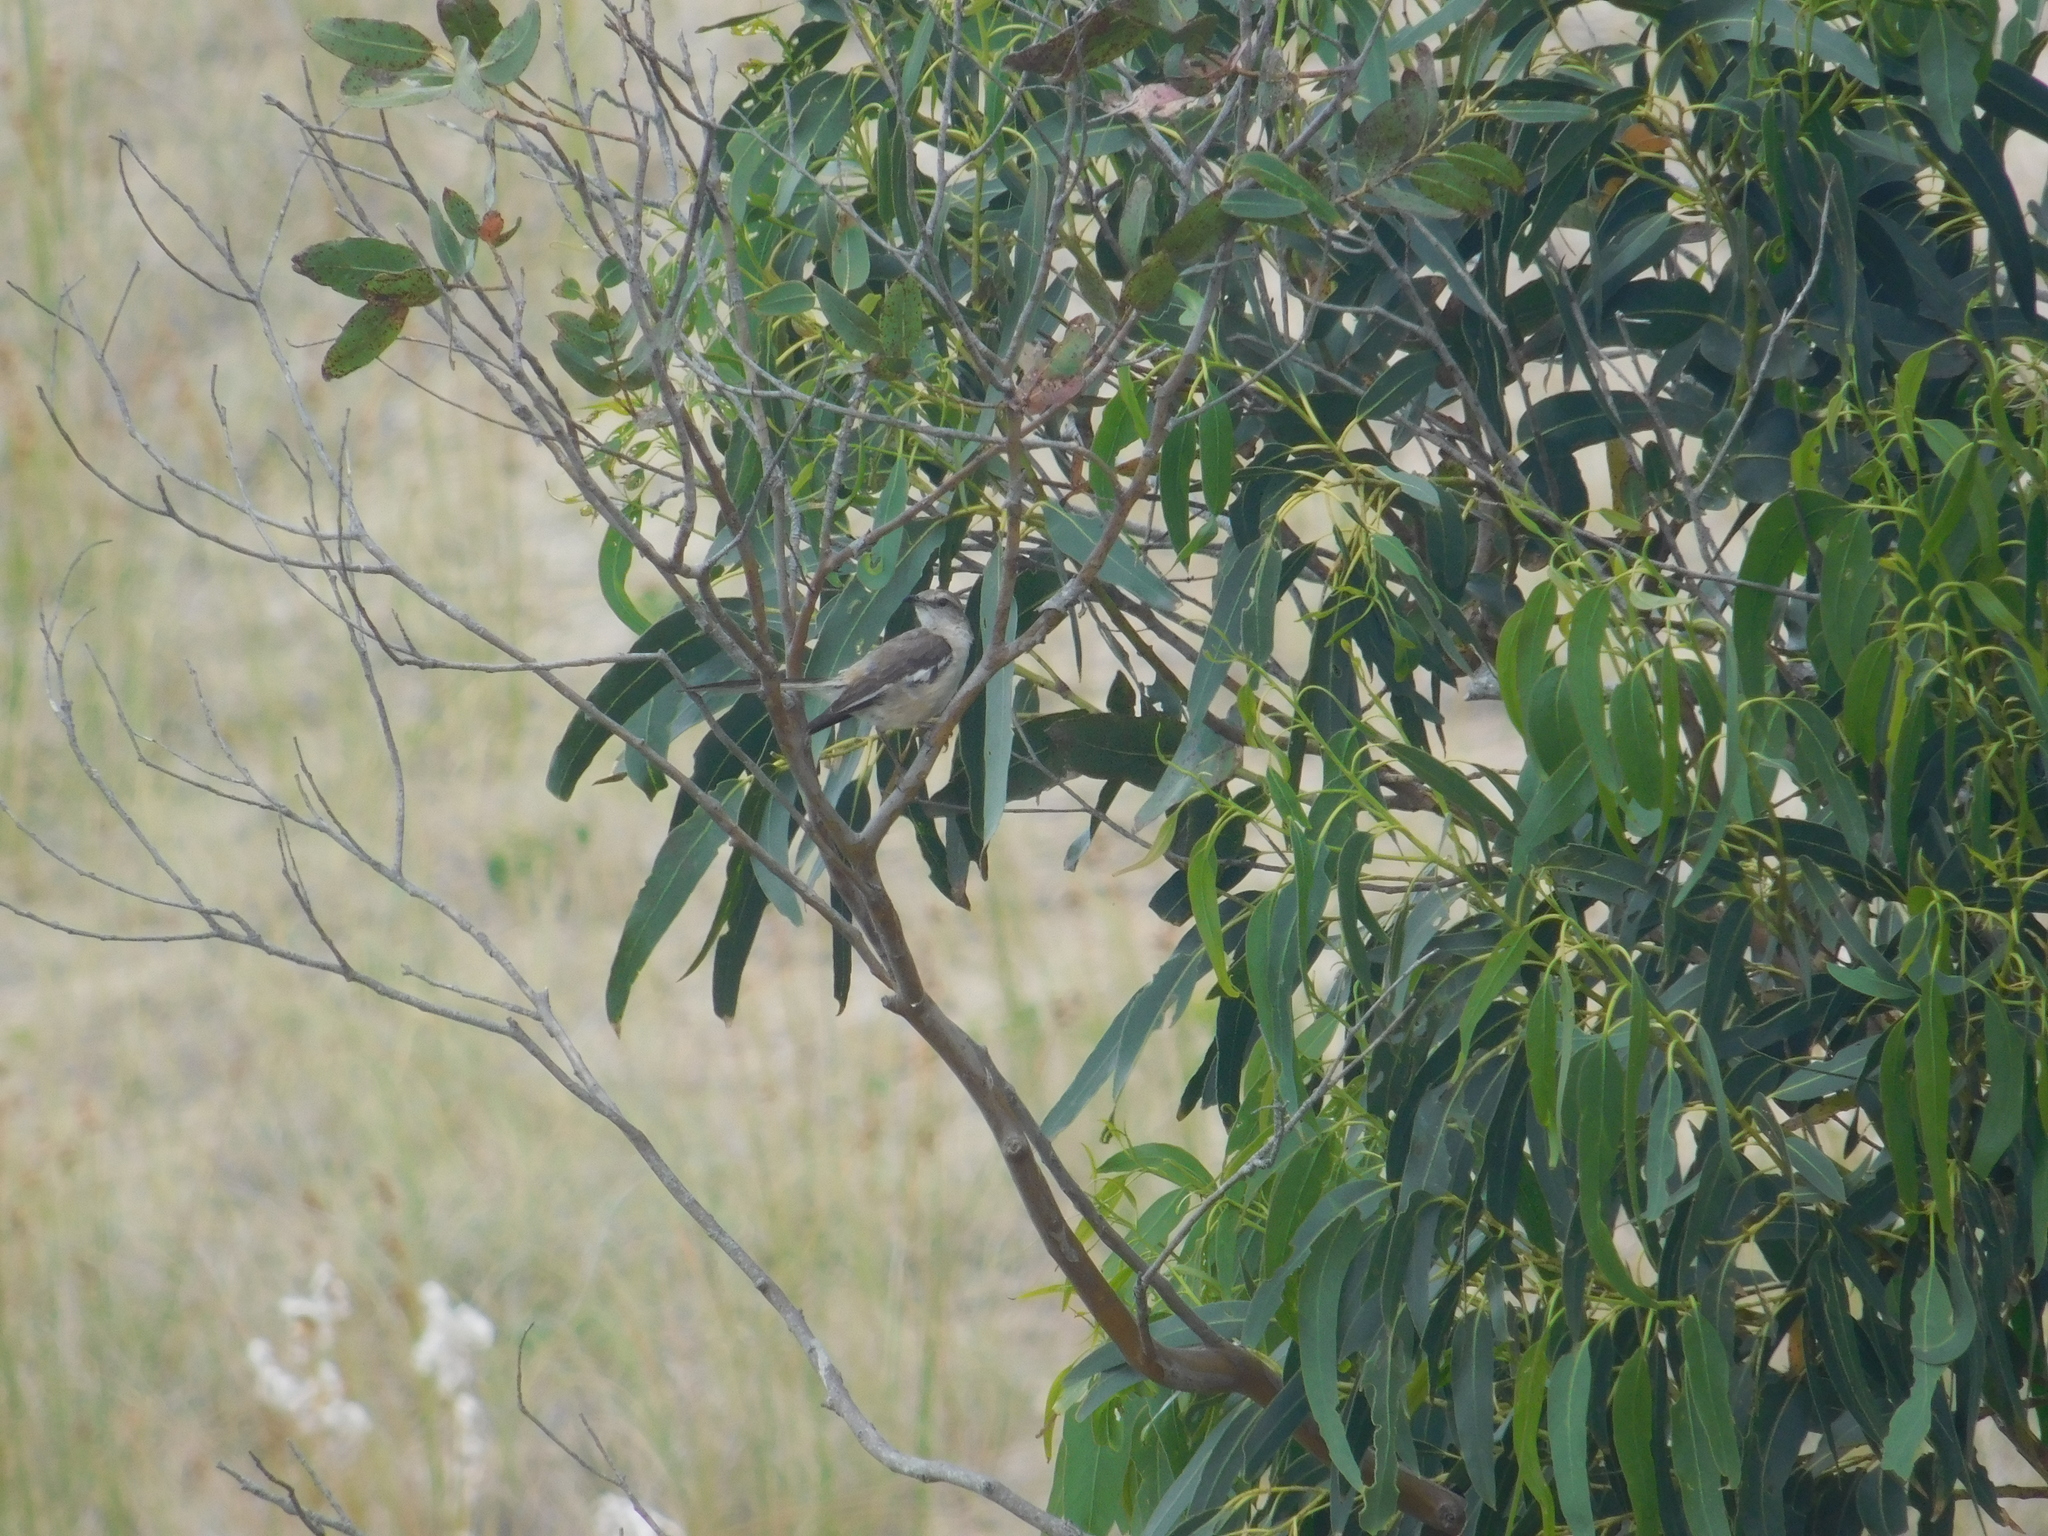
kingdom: Animalia
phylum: Chordata
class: Aves
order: Passeriformes
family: Mimidae
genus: Mimus
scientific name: Mimus triurus
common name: White-banded mockingbird
